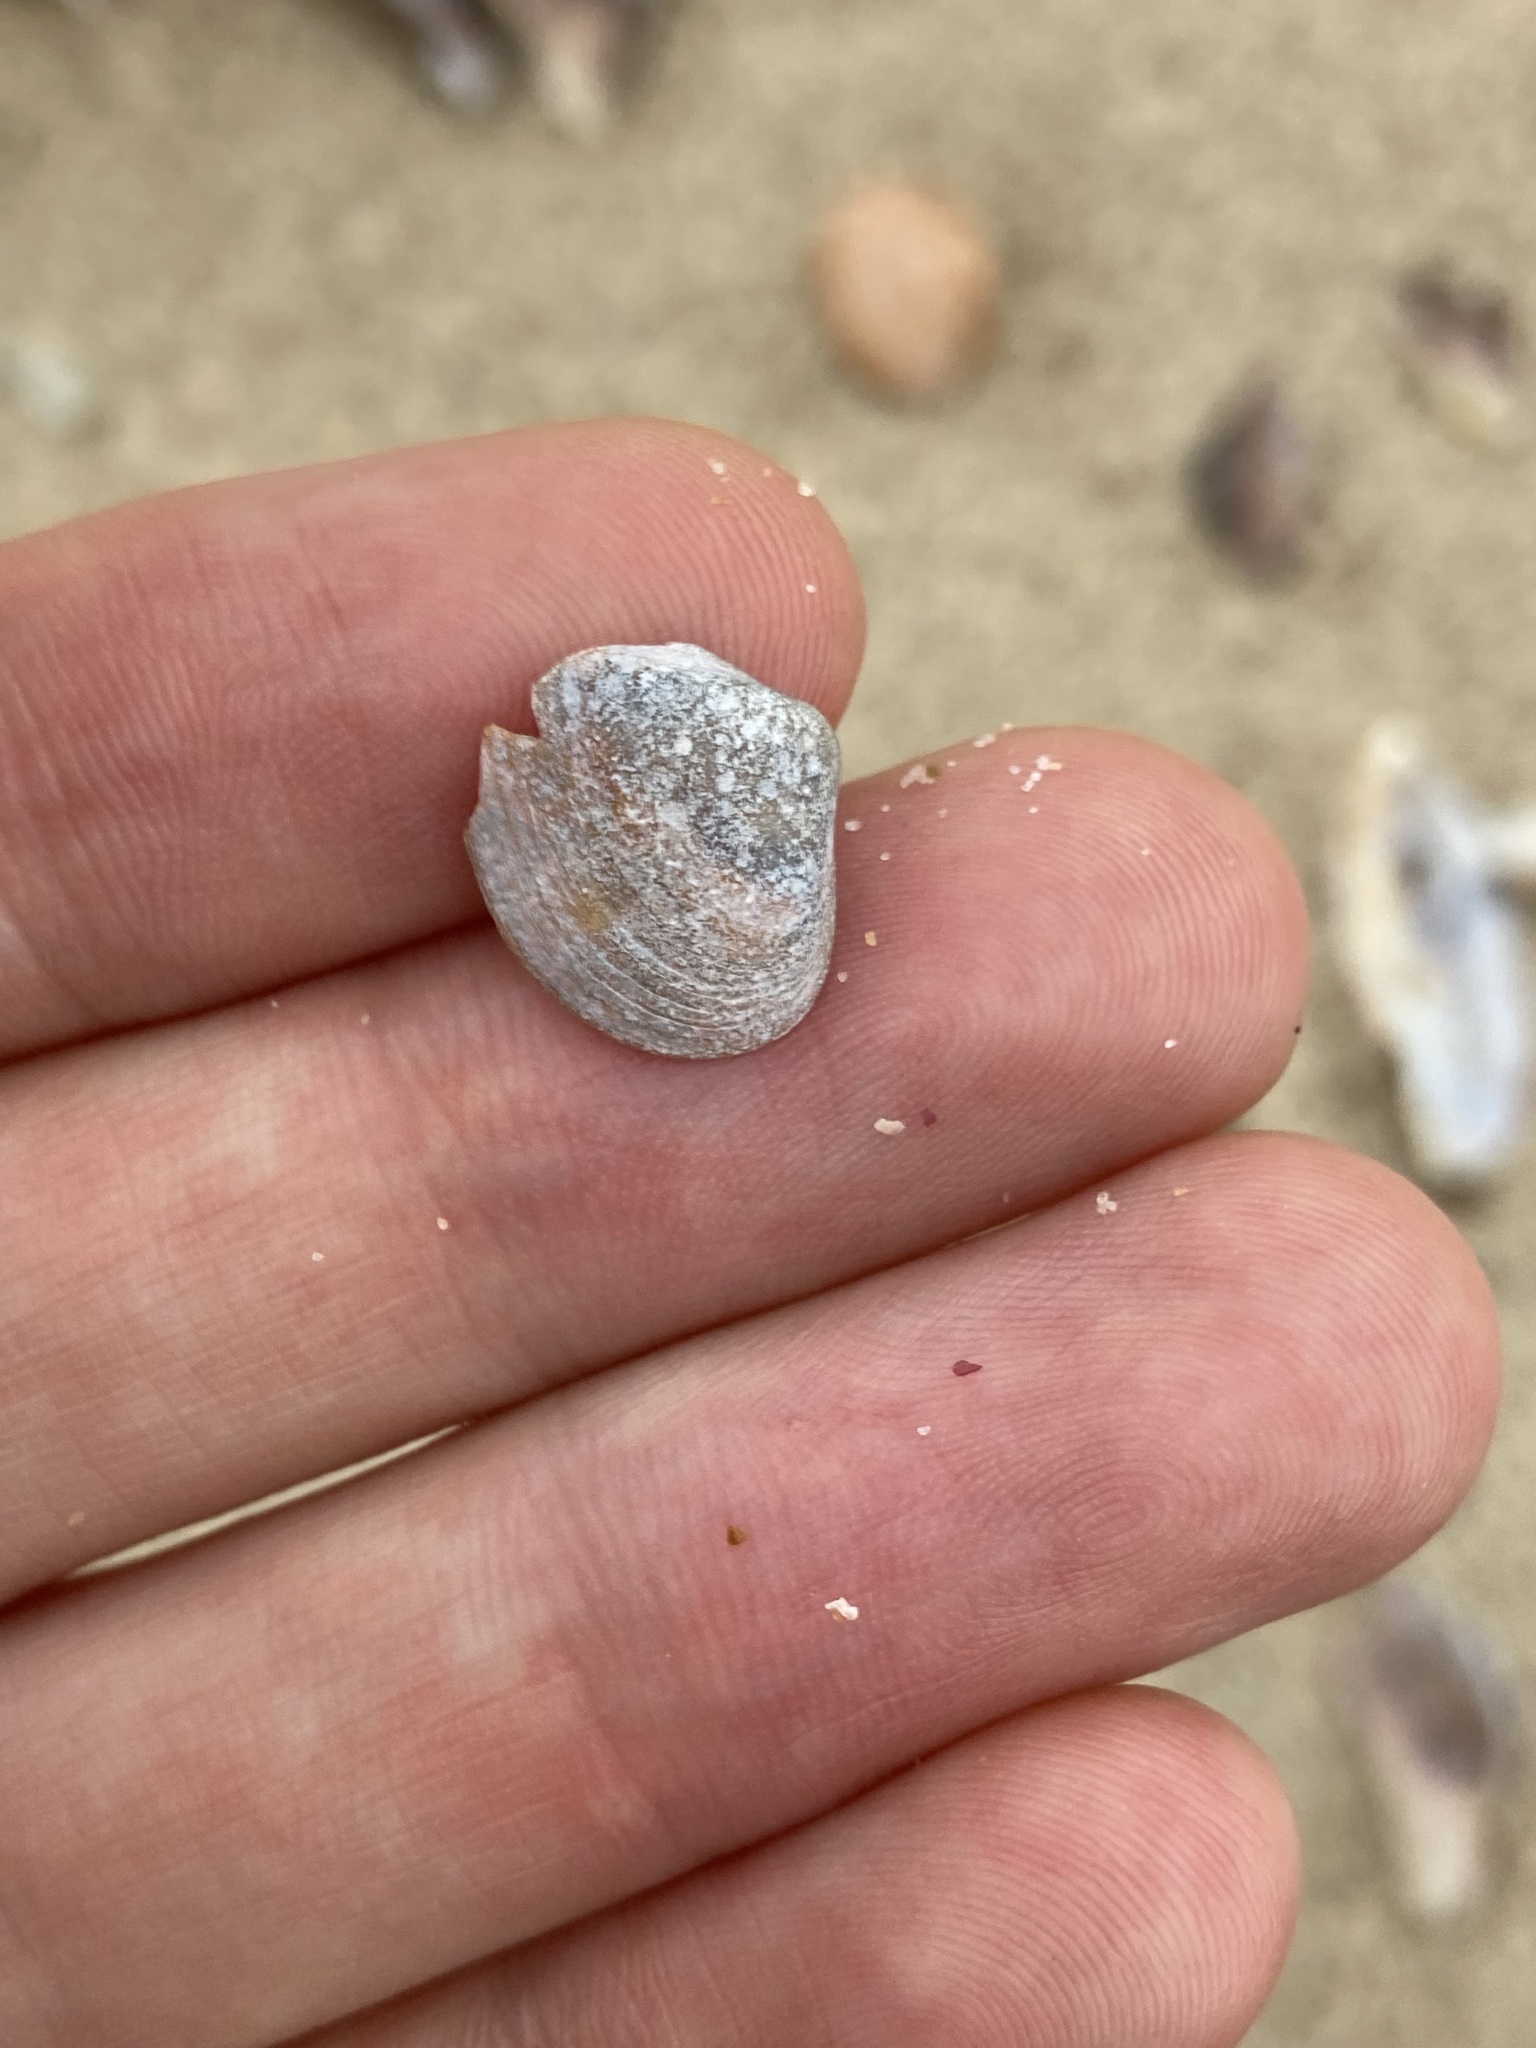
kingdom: Animalia
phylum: Mollusca
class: Bivalvia
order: Venerida
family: Mactridae
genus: Spisula
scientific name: Spisula trigonella
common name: Trigonal mactra
